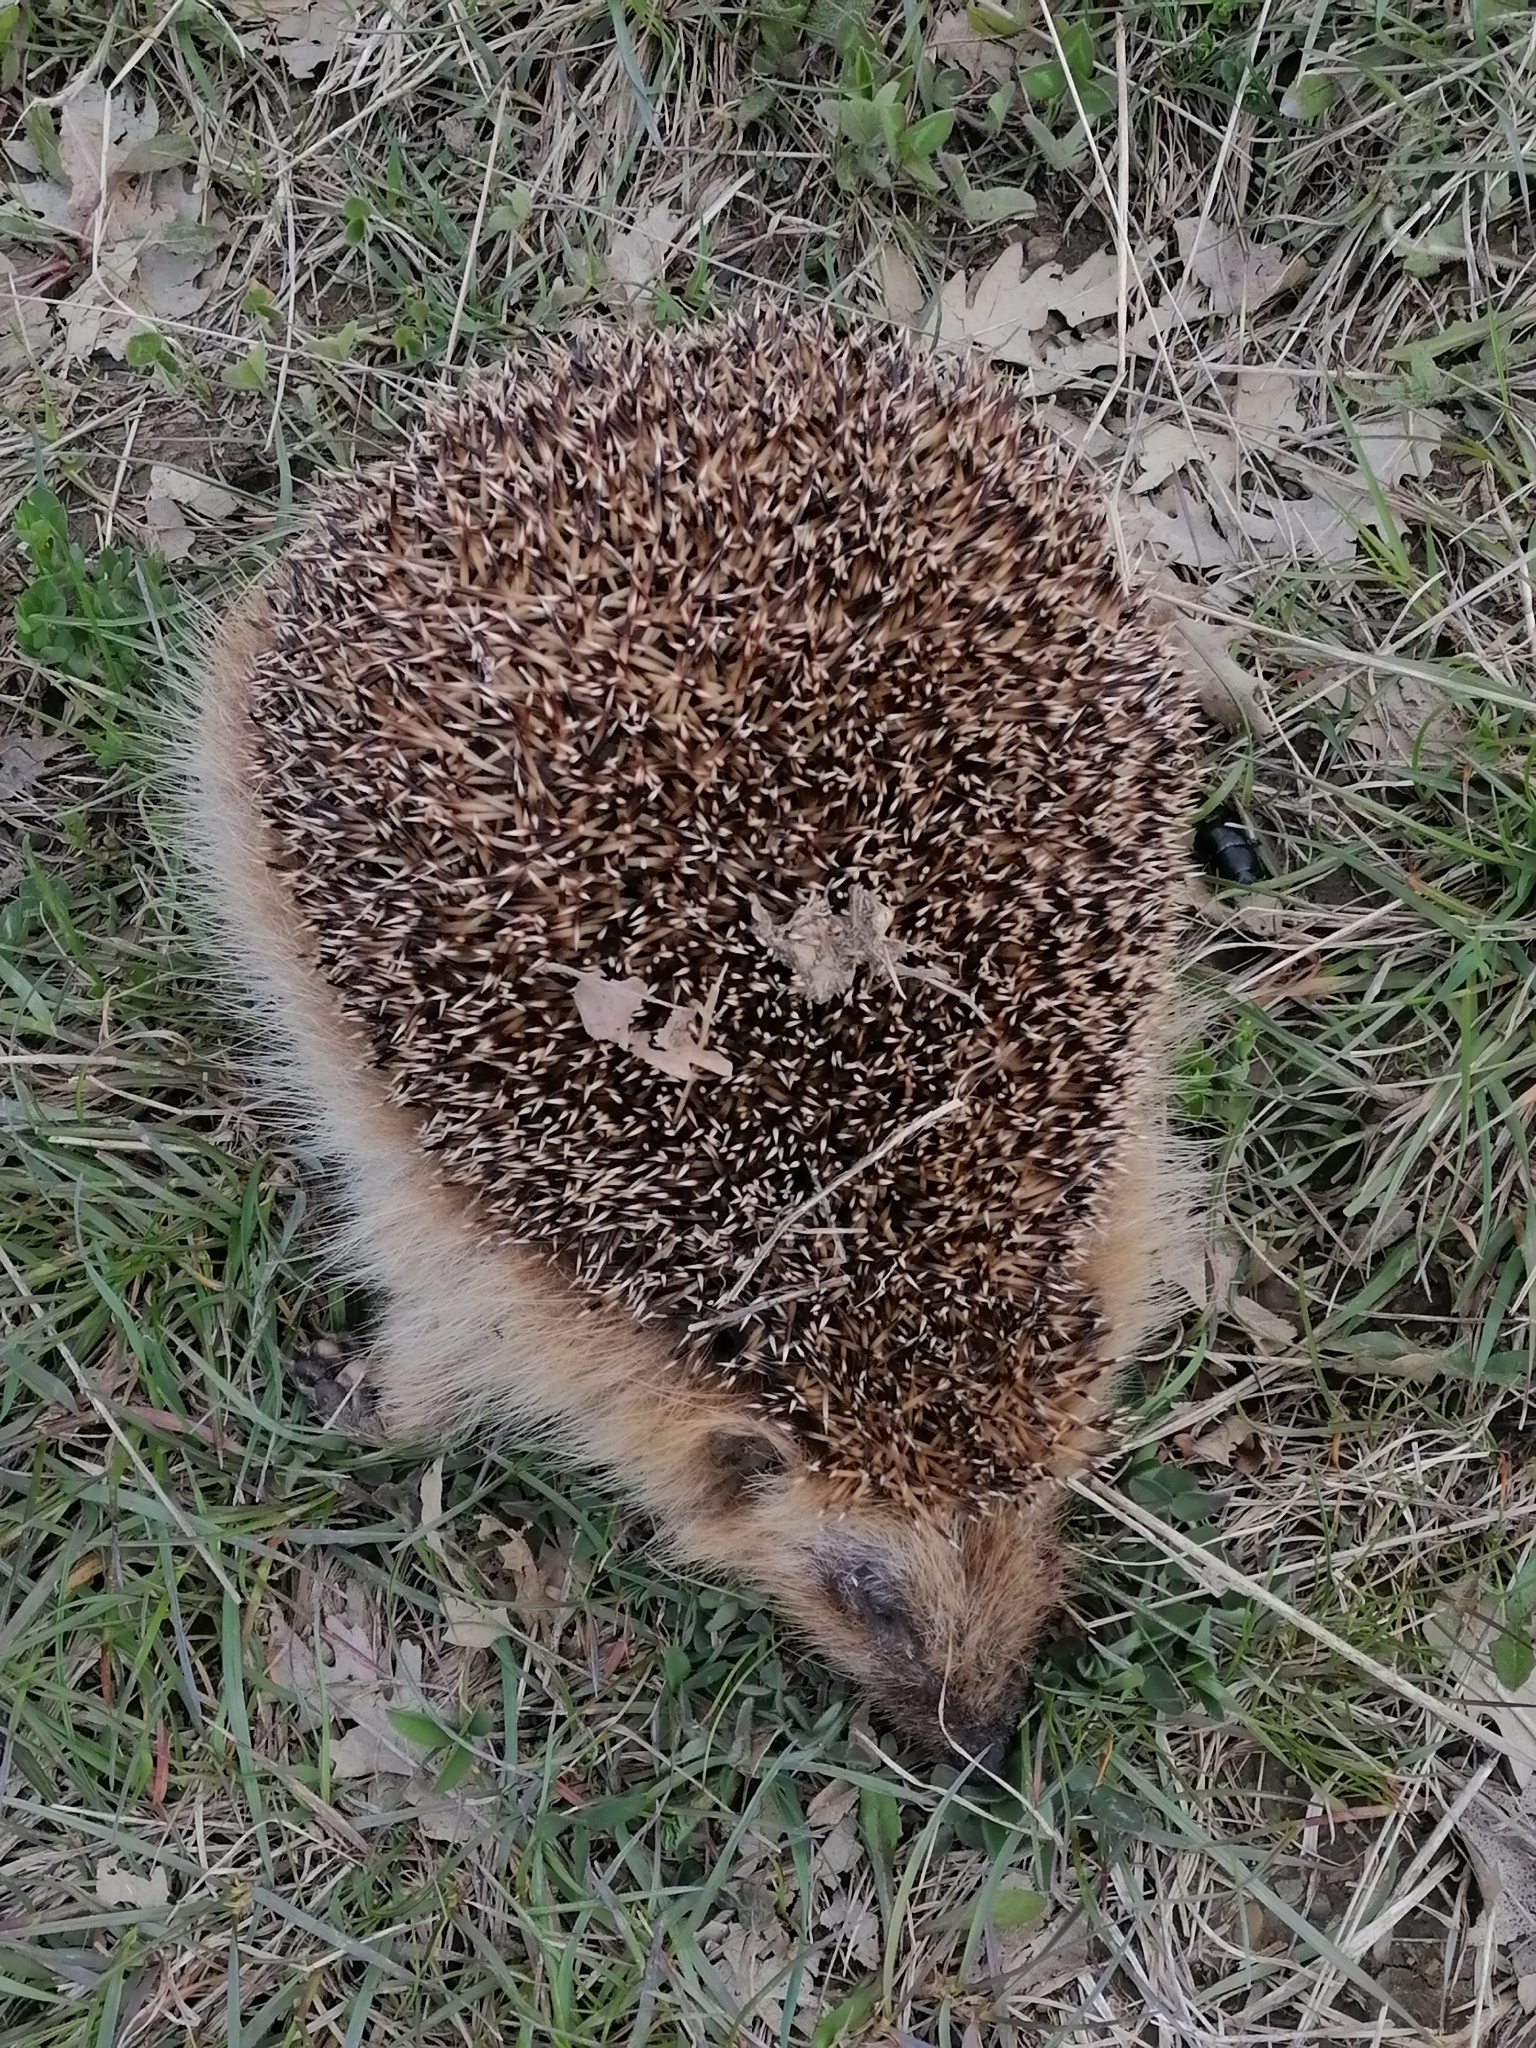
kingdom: Animalia
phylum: Chordata
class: Mammalia
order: Erinaceomorpha
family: Erinaceidae
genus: Erinaceus
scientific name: Erinaceus europaeus
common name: West european hedgehog
